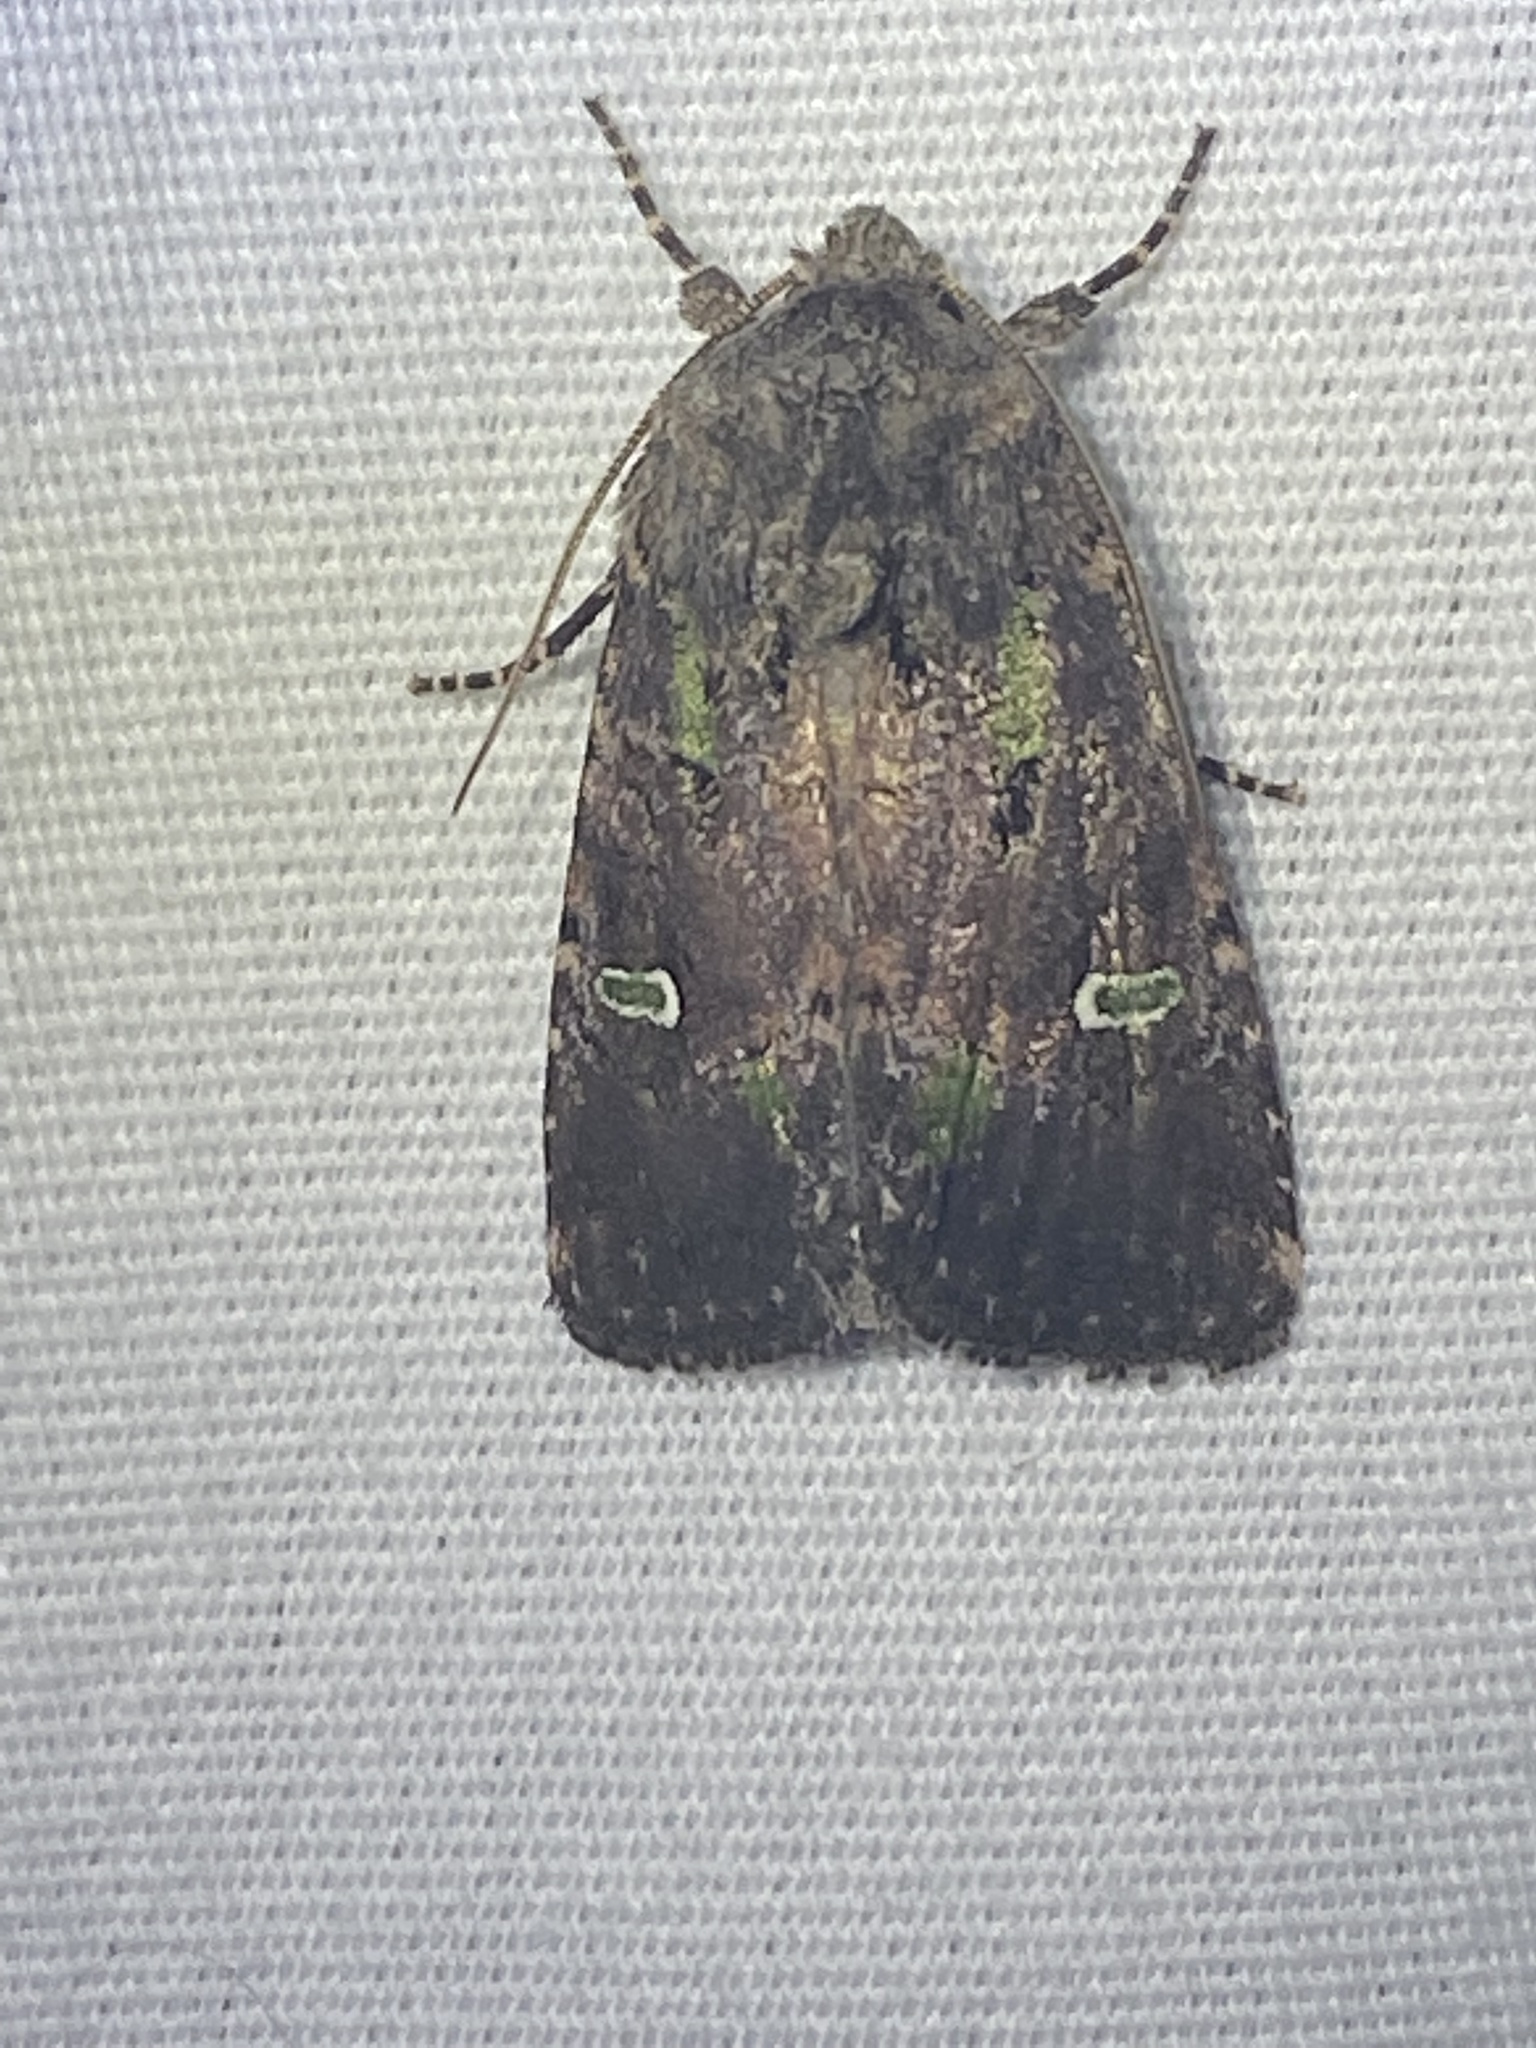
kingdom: Animalia
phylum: Arthropoda
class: Insecta
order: Lepidoptera
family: Noctuidae
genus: Lacinipolia
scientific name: Lacinipolia renigera
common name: Kidney-spotted minor
